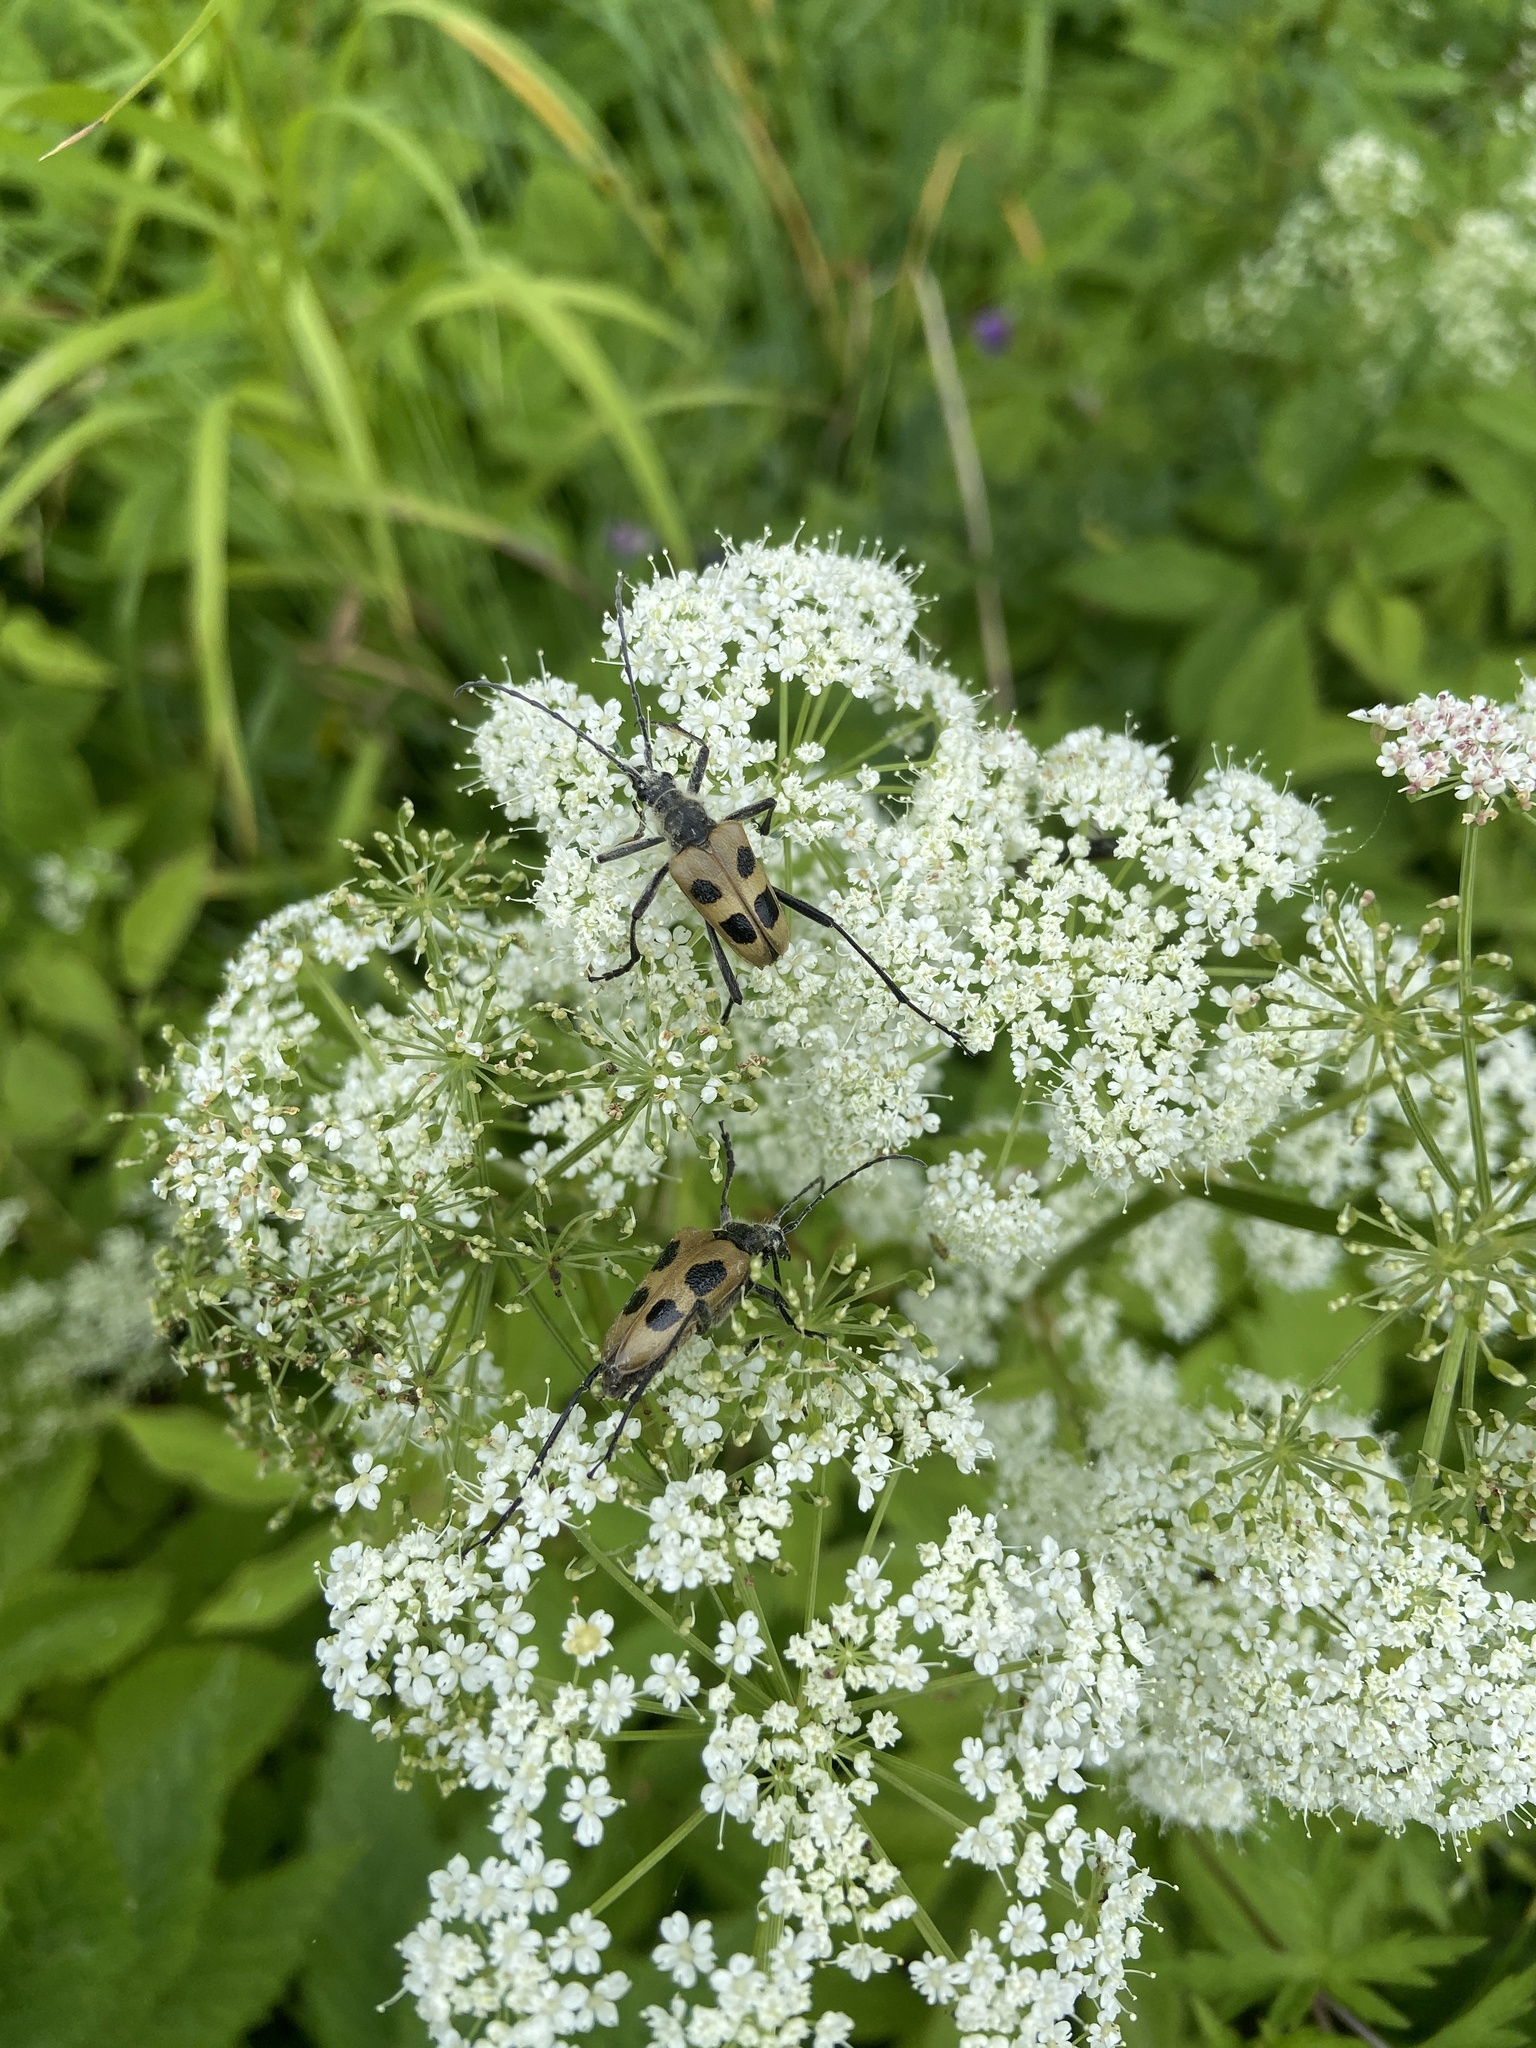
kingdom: Animalia
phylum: Arthropoda
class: Insecta
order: Coleoptera
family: Cerambycidae
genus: Pachyta
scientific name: Pachyta quadrimaculata
